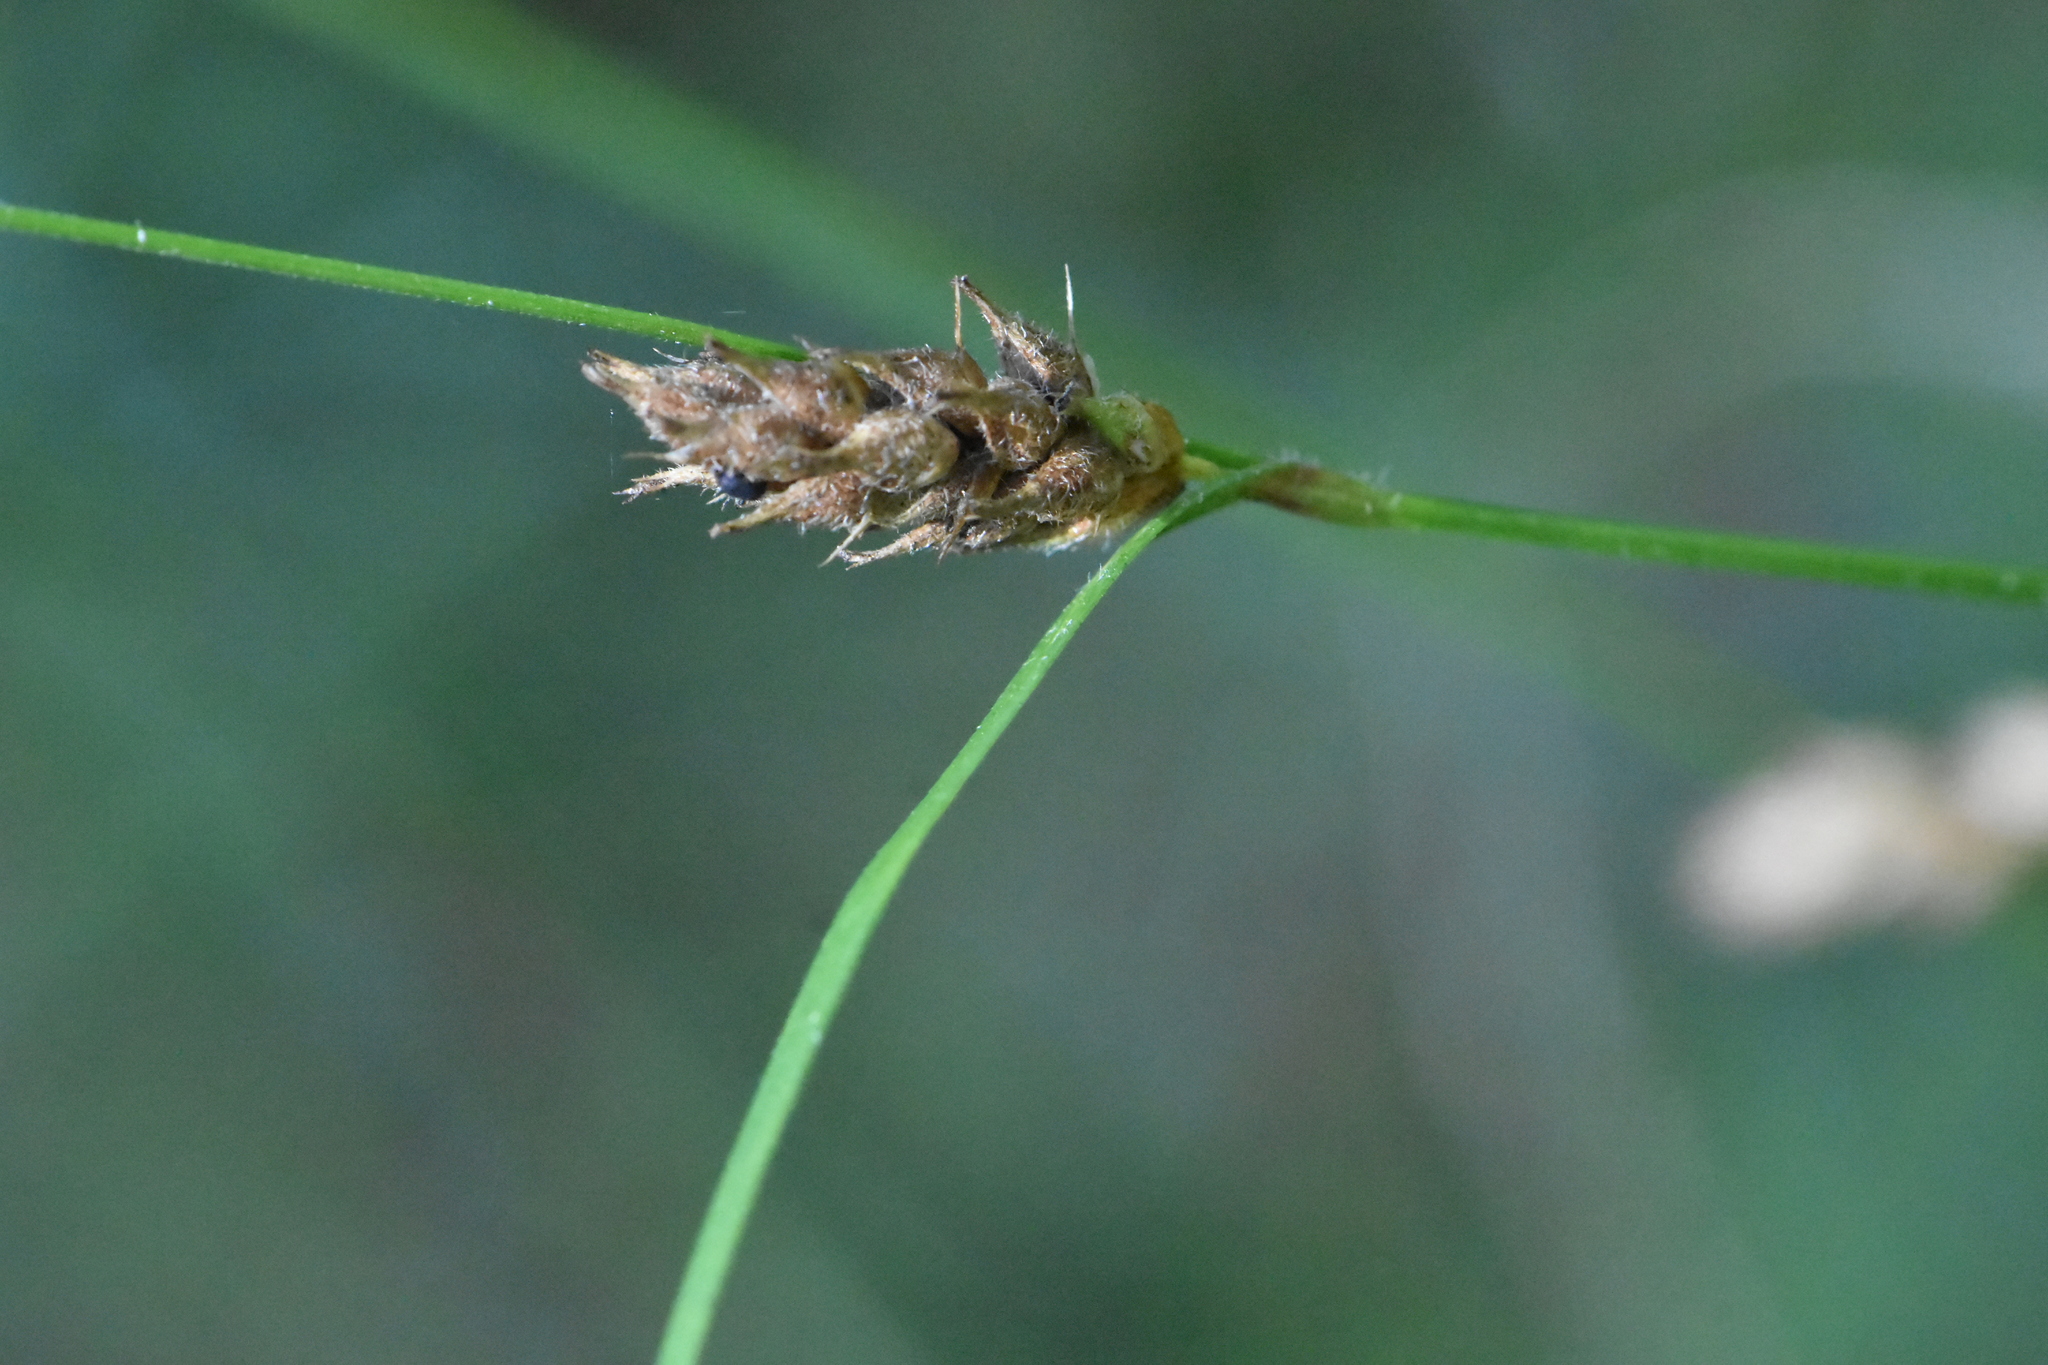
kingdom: Plantae
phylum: Tracheophyta
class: Liliopsida
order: Poales
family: Cyperaceae
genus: Carex
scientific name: Carex lasiocarpa
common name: Slender sedge
